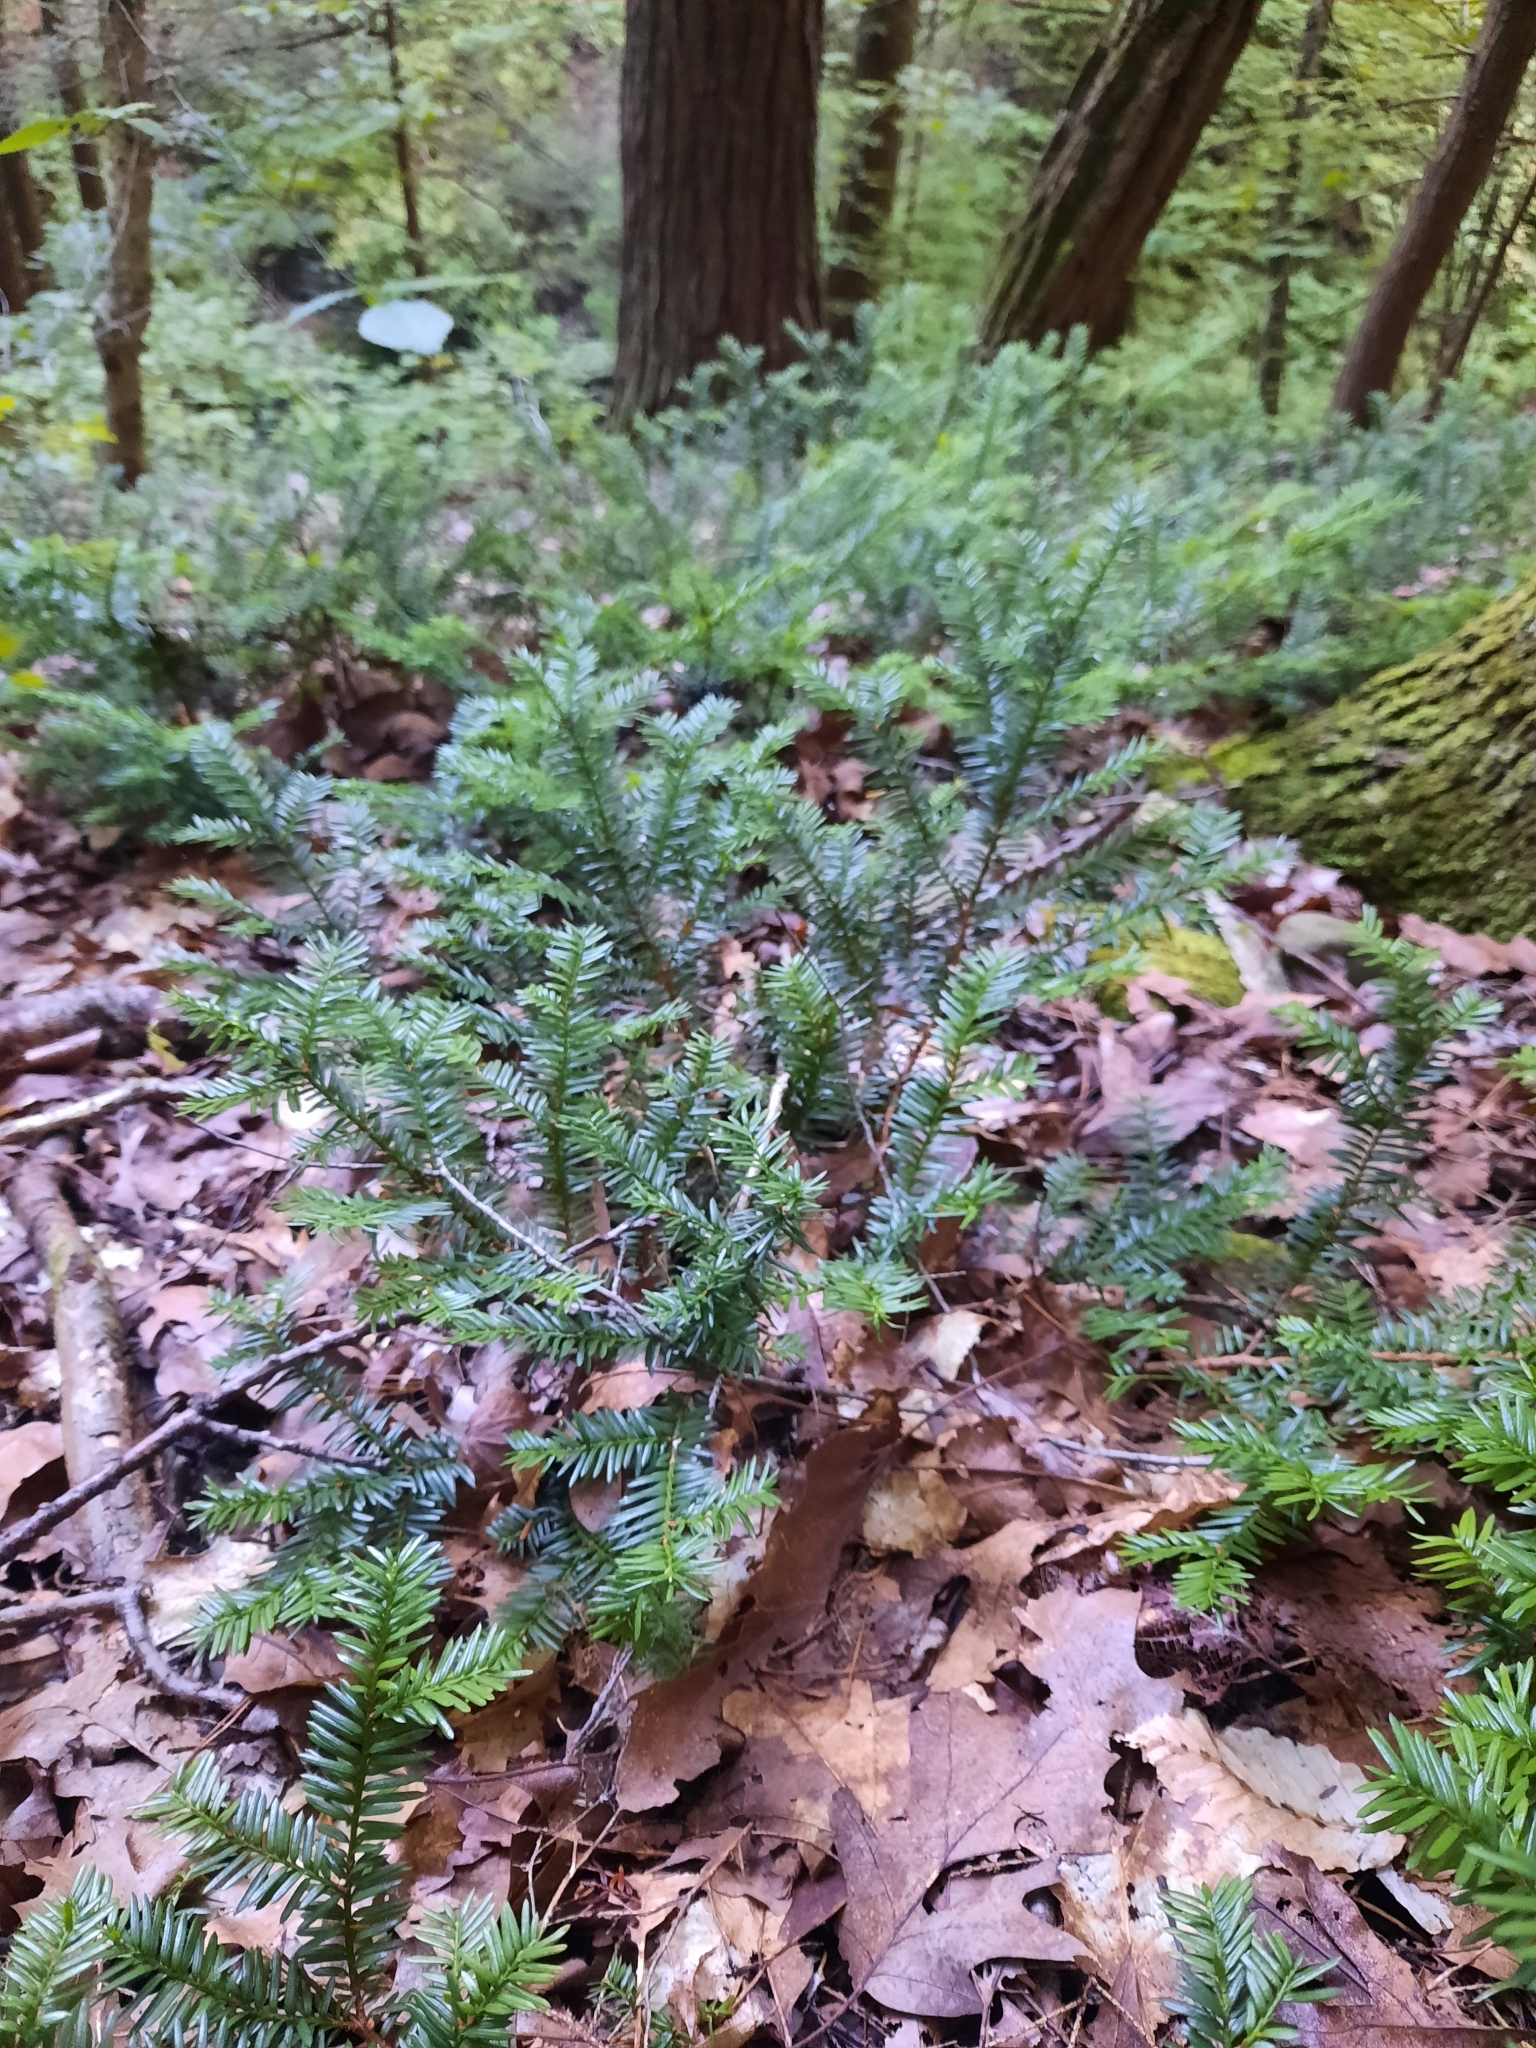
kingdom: Plantae
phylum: Tracheophyta
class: Pinopsida
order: Pinales
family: Taxaceae
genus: Taxus
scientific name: Taxus canadensis
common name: American yew
